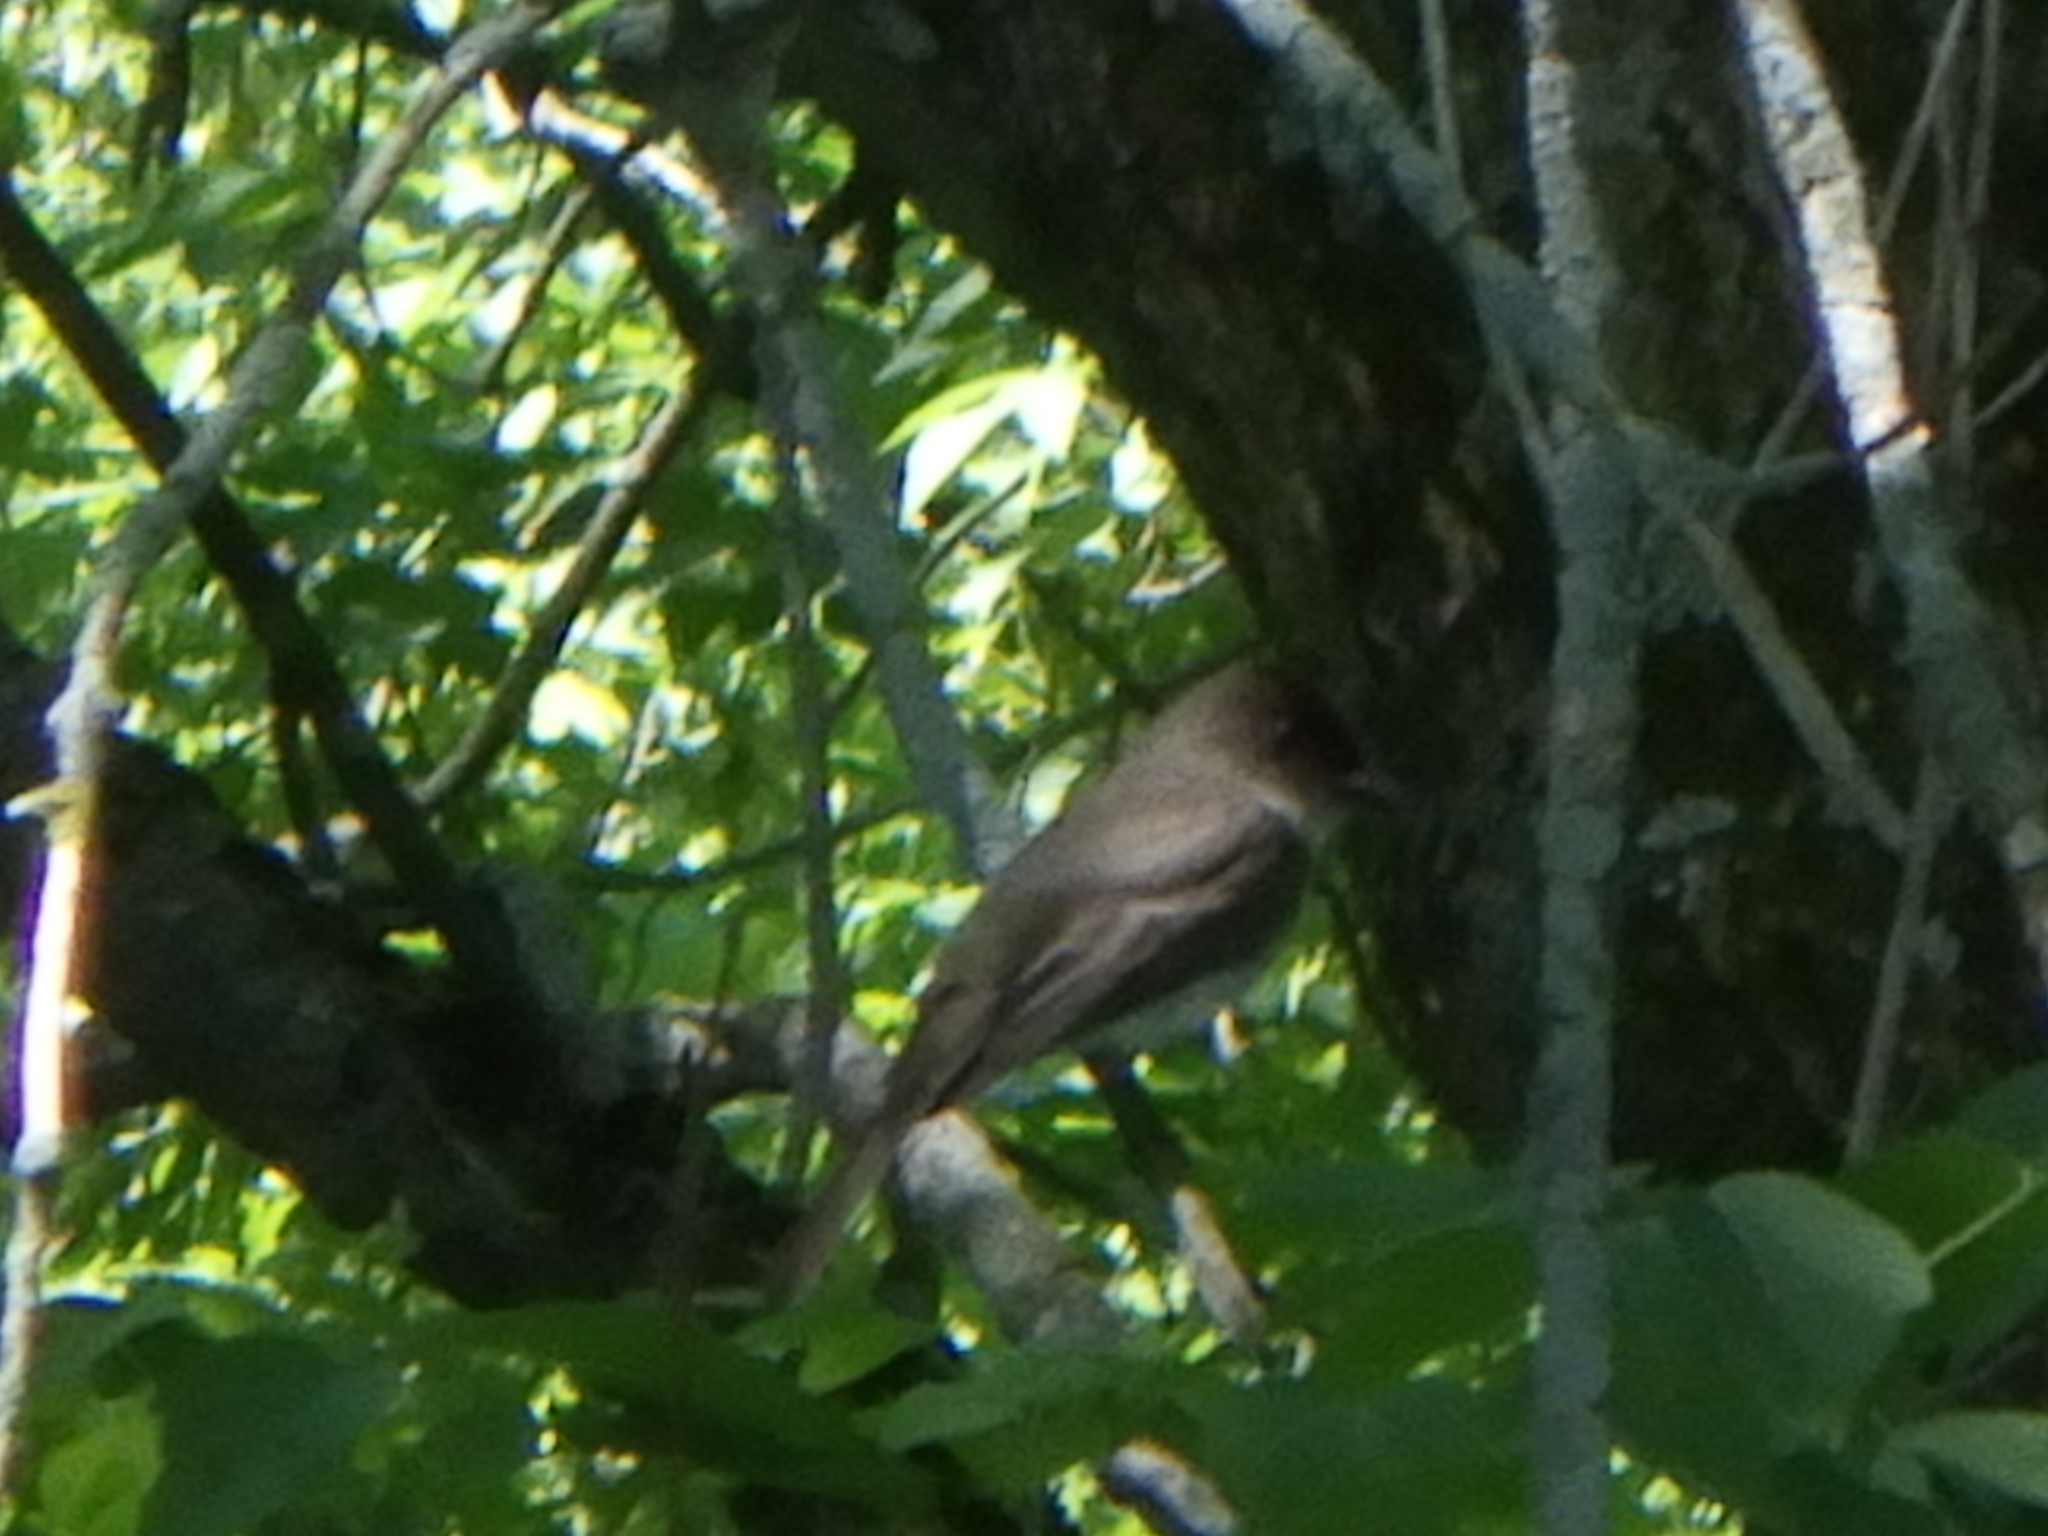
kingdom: Animalia
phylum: Chordata
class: Aves
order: Passeriformes
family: Tyrannidae
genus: Sayornis
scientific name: Sayornis phoebe
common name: Eastern phoebe
